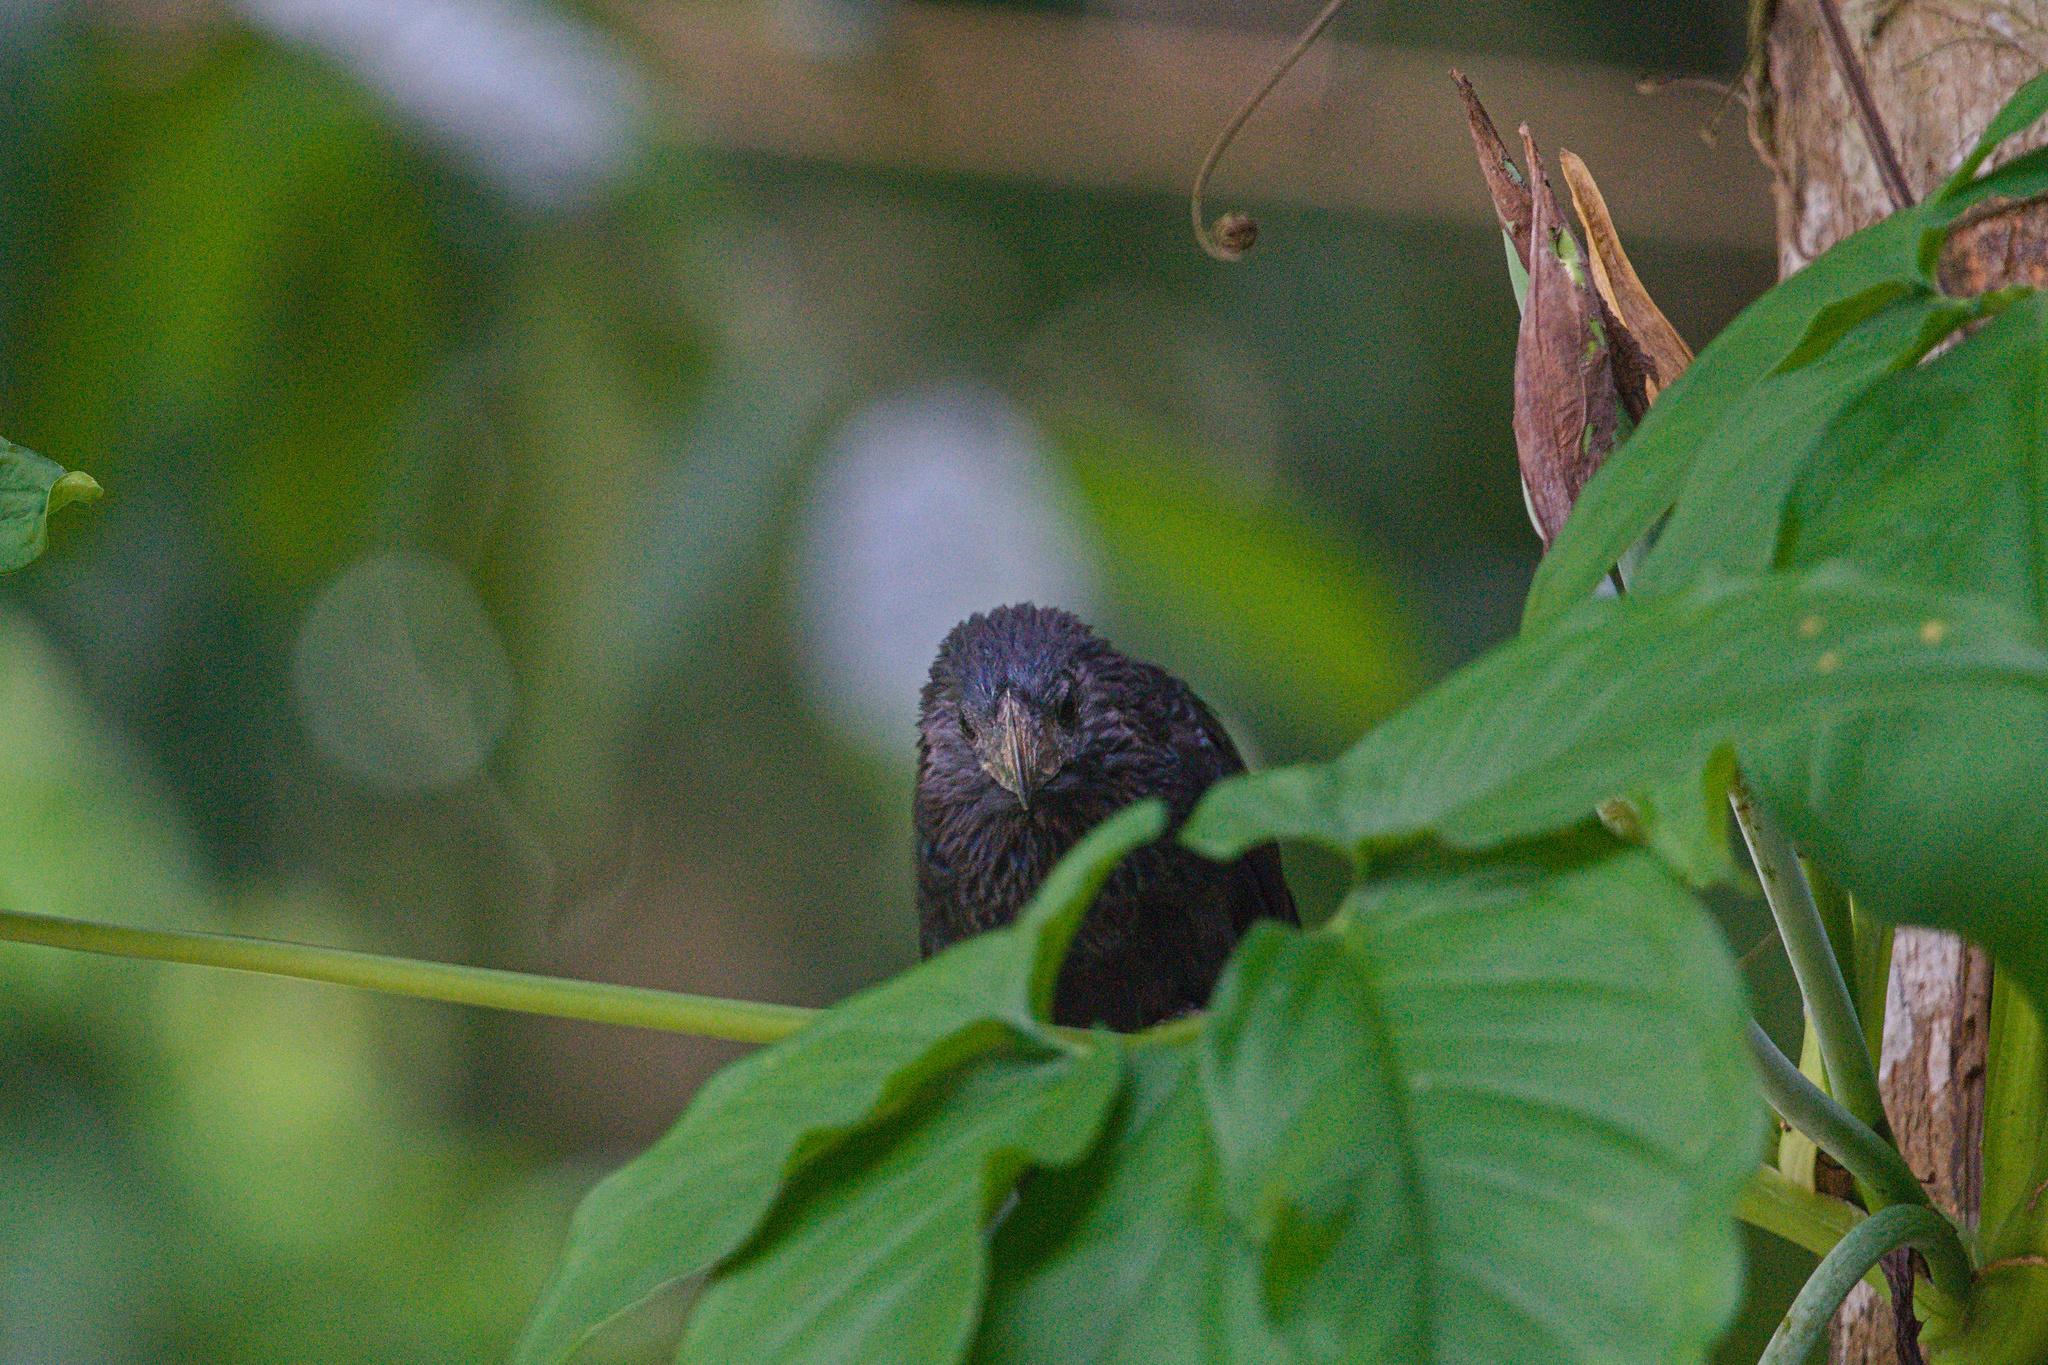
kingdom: Animalia
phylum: Chordata
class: Aves
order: Cuculiformes
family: Cuculidae
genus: Crotophaga
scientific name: Crotophaga sulcirostris
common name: Groove-billed ani
